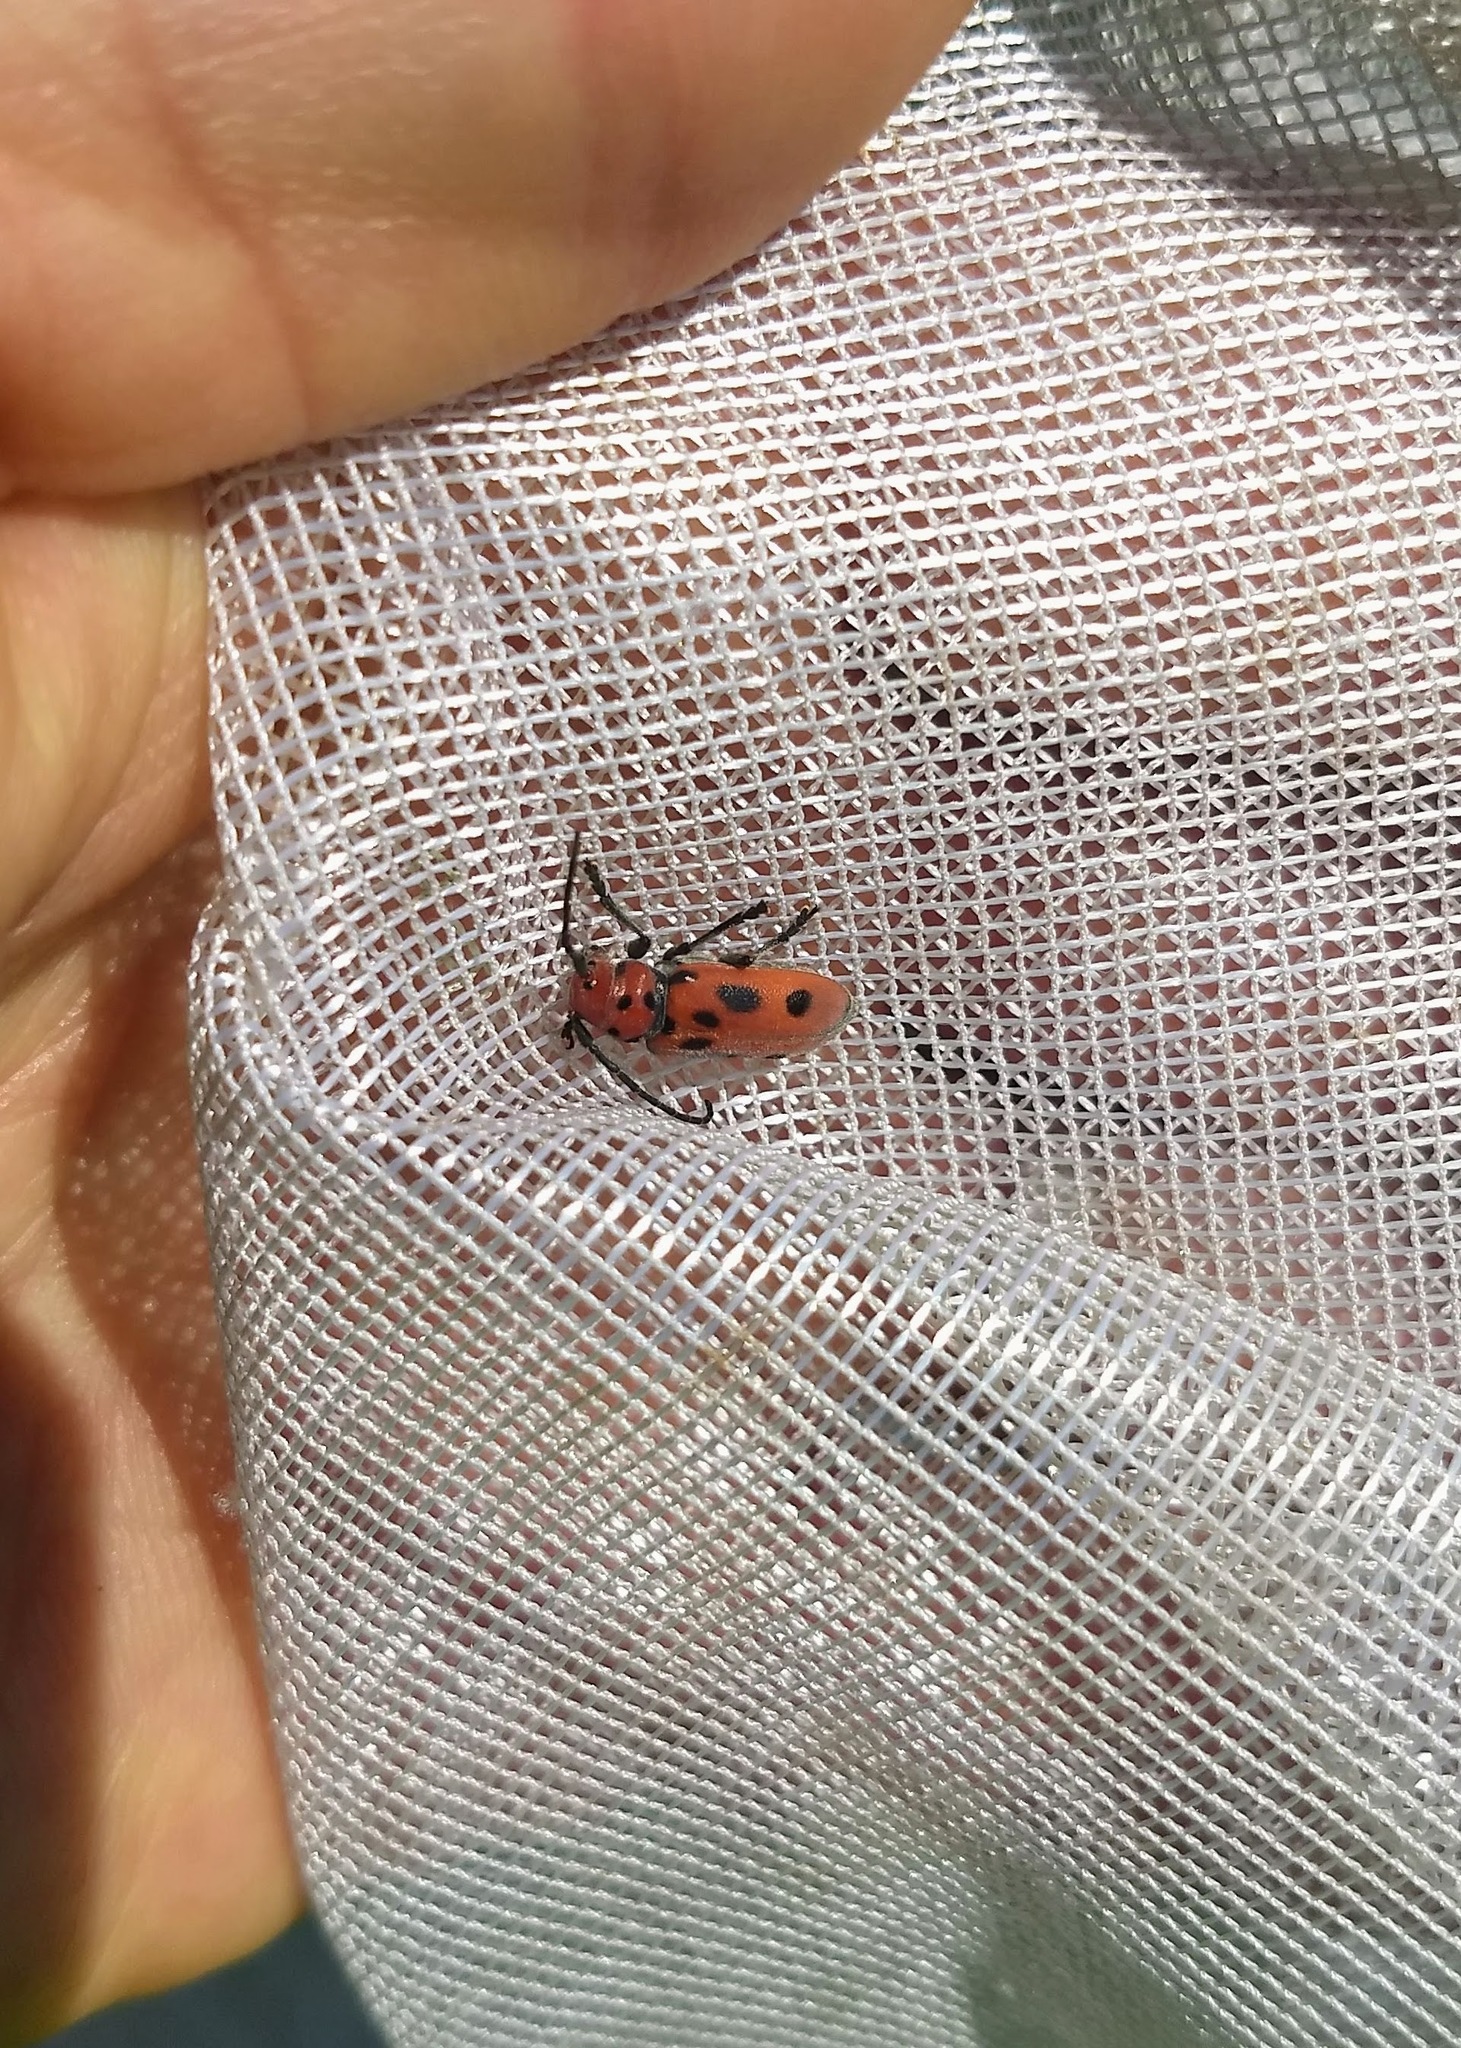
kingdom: Animalia
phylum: Arthropoda
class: Insecta
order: Coleoptera
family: Cerambycidae
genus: Tetraopes
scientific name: Tetraopes tetrophthalmus
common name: Red milkweed beetle
